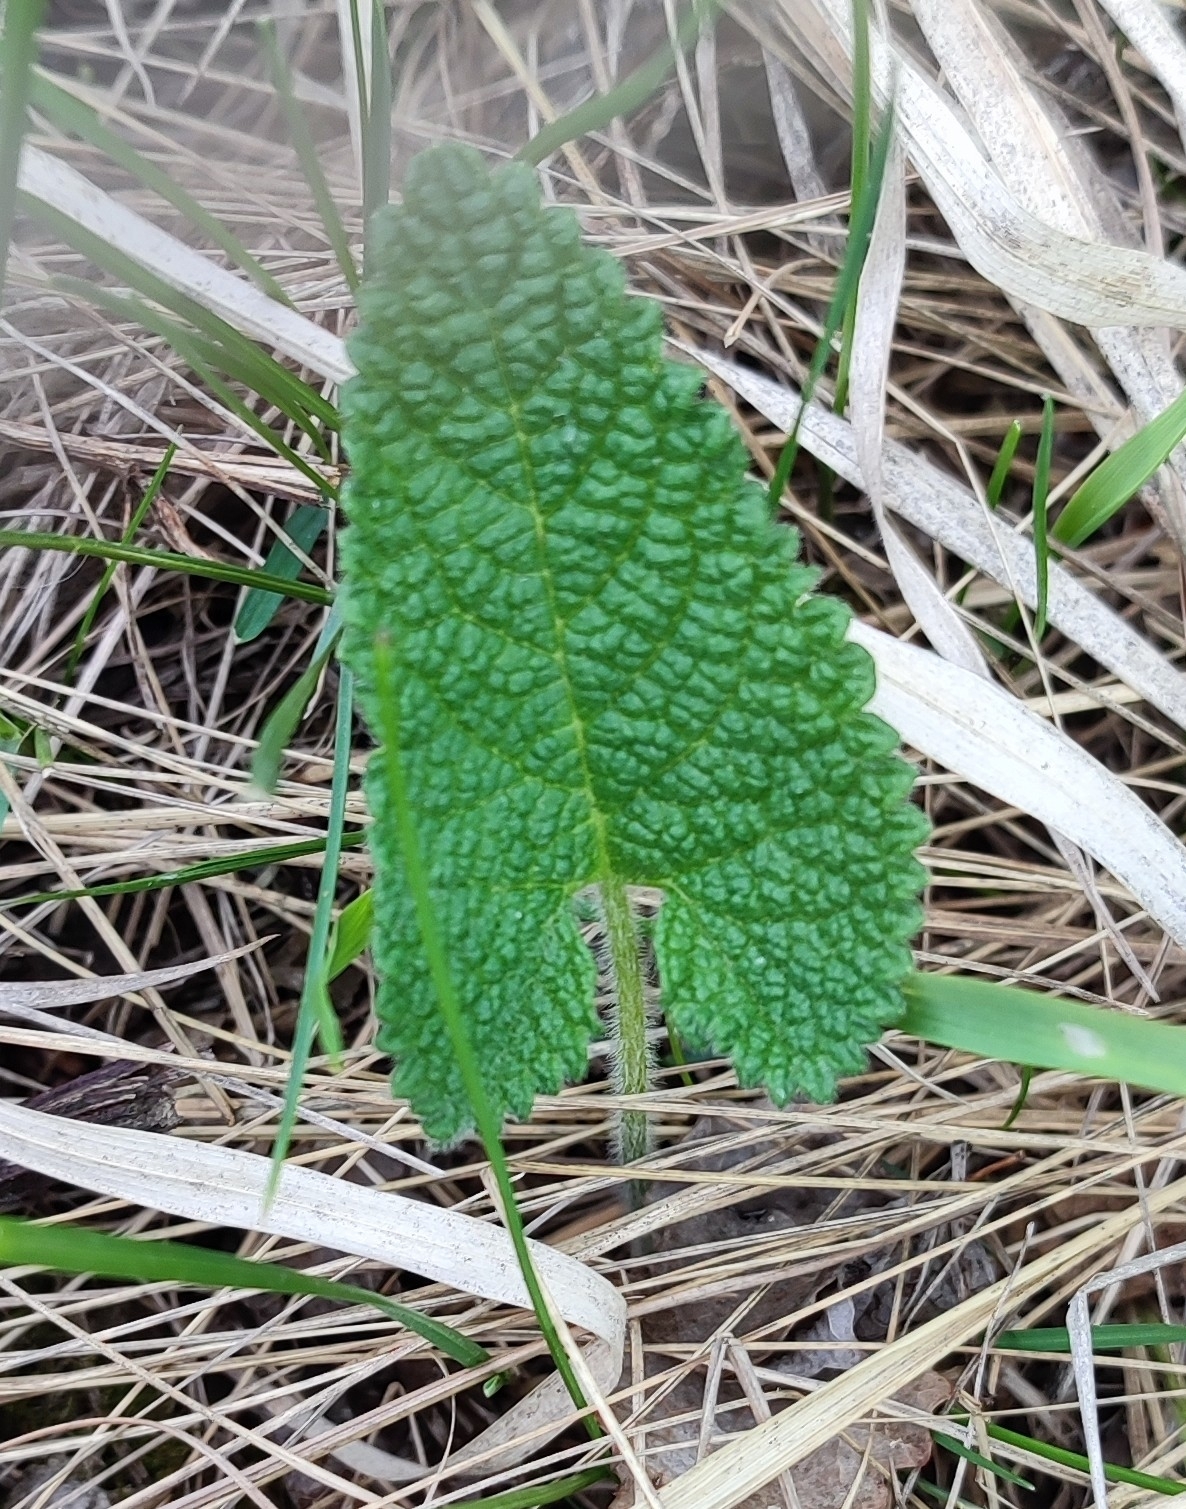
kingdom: Plantae
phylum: Tracheophyta
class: Magnoliopsida
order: Lamiales
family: Lamiaceae
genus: Phlomoides
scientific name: Phlomoides tuberosa
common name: Tuberous jerusalem sage
